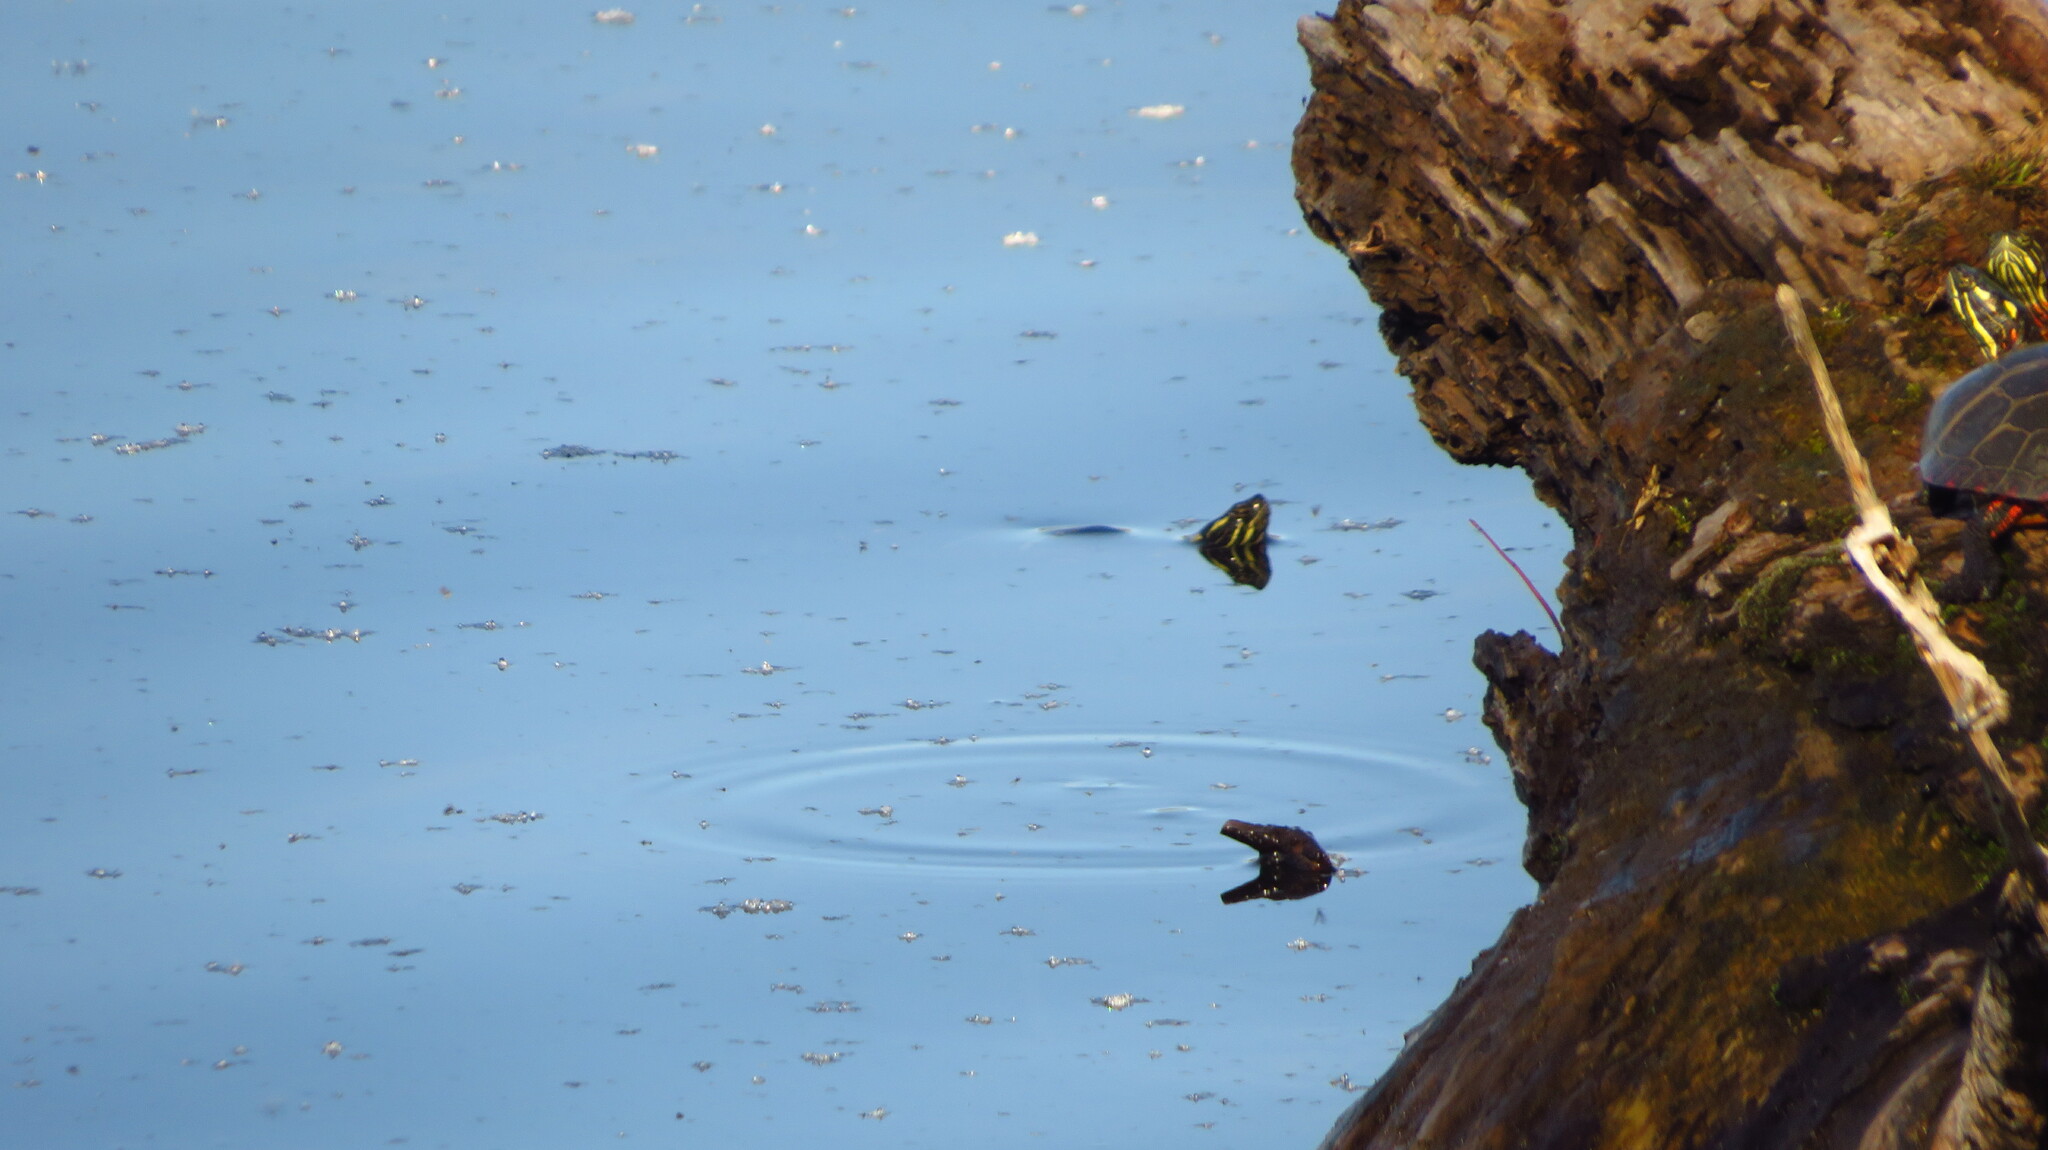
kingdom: Animalia
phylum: Chordata
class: Testudines
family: Emydidae
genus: Chrysemys
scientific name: Chrysemys picta
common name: Painted turtle
